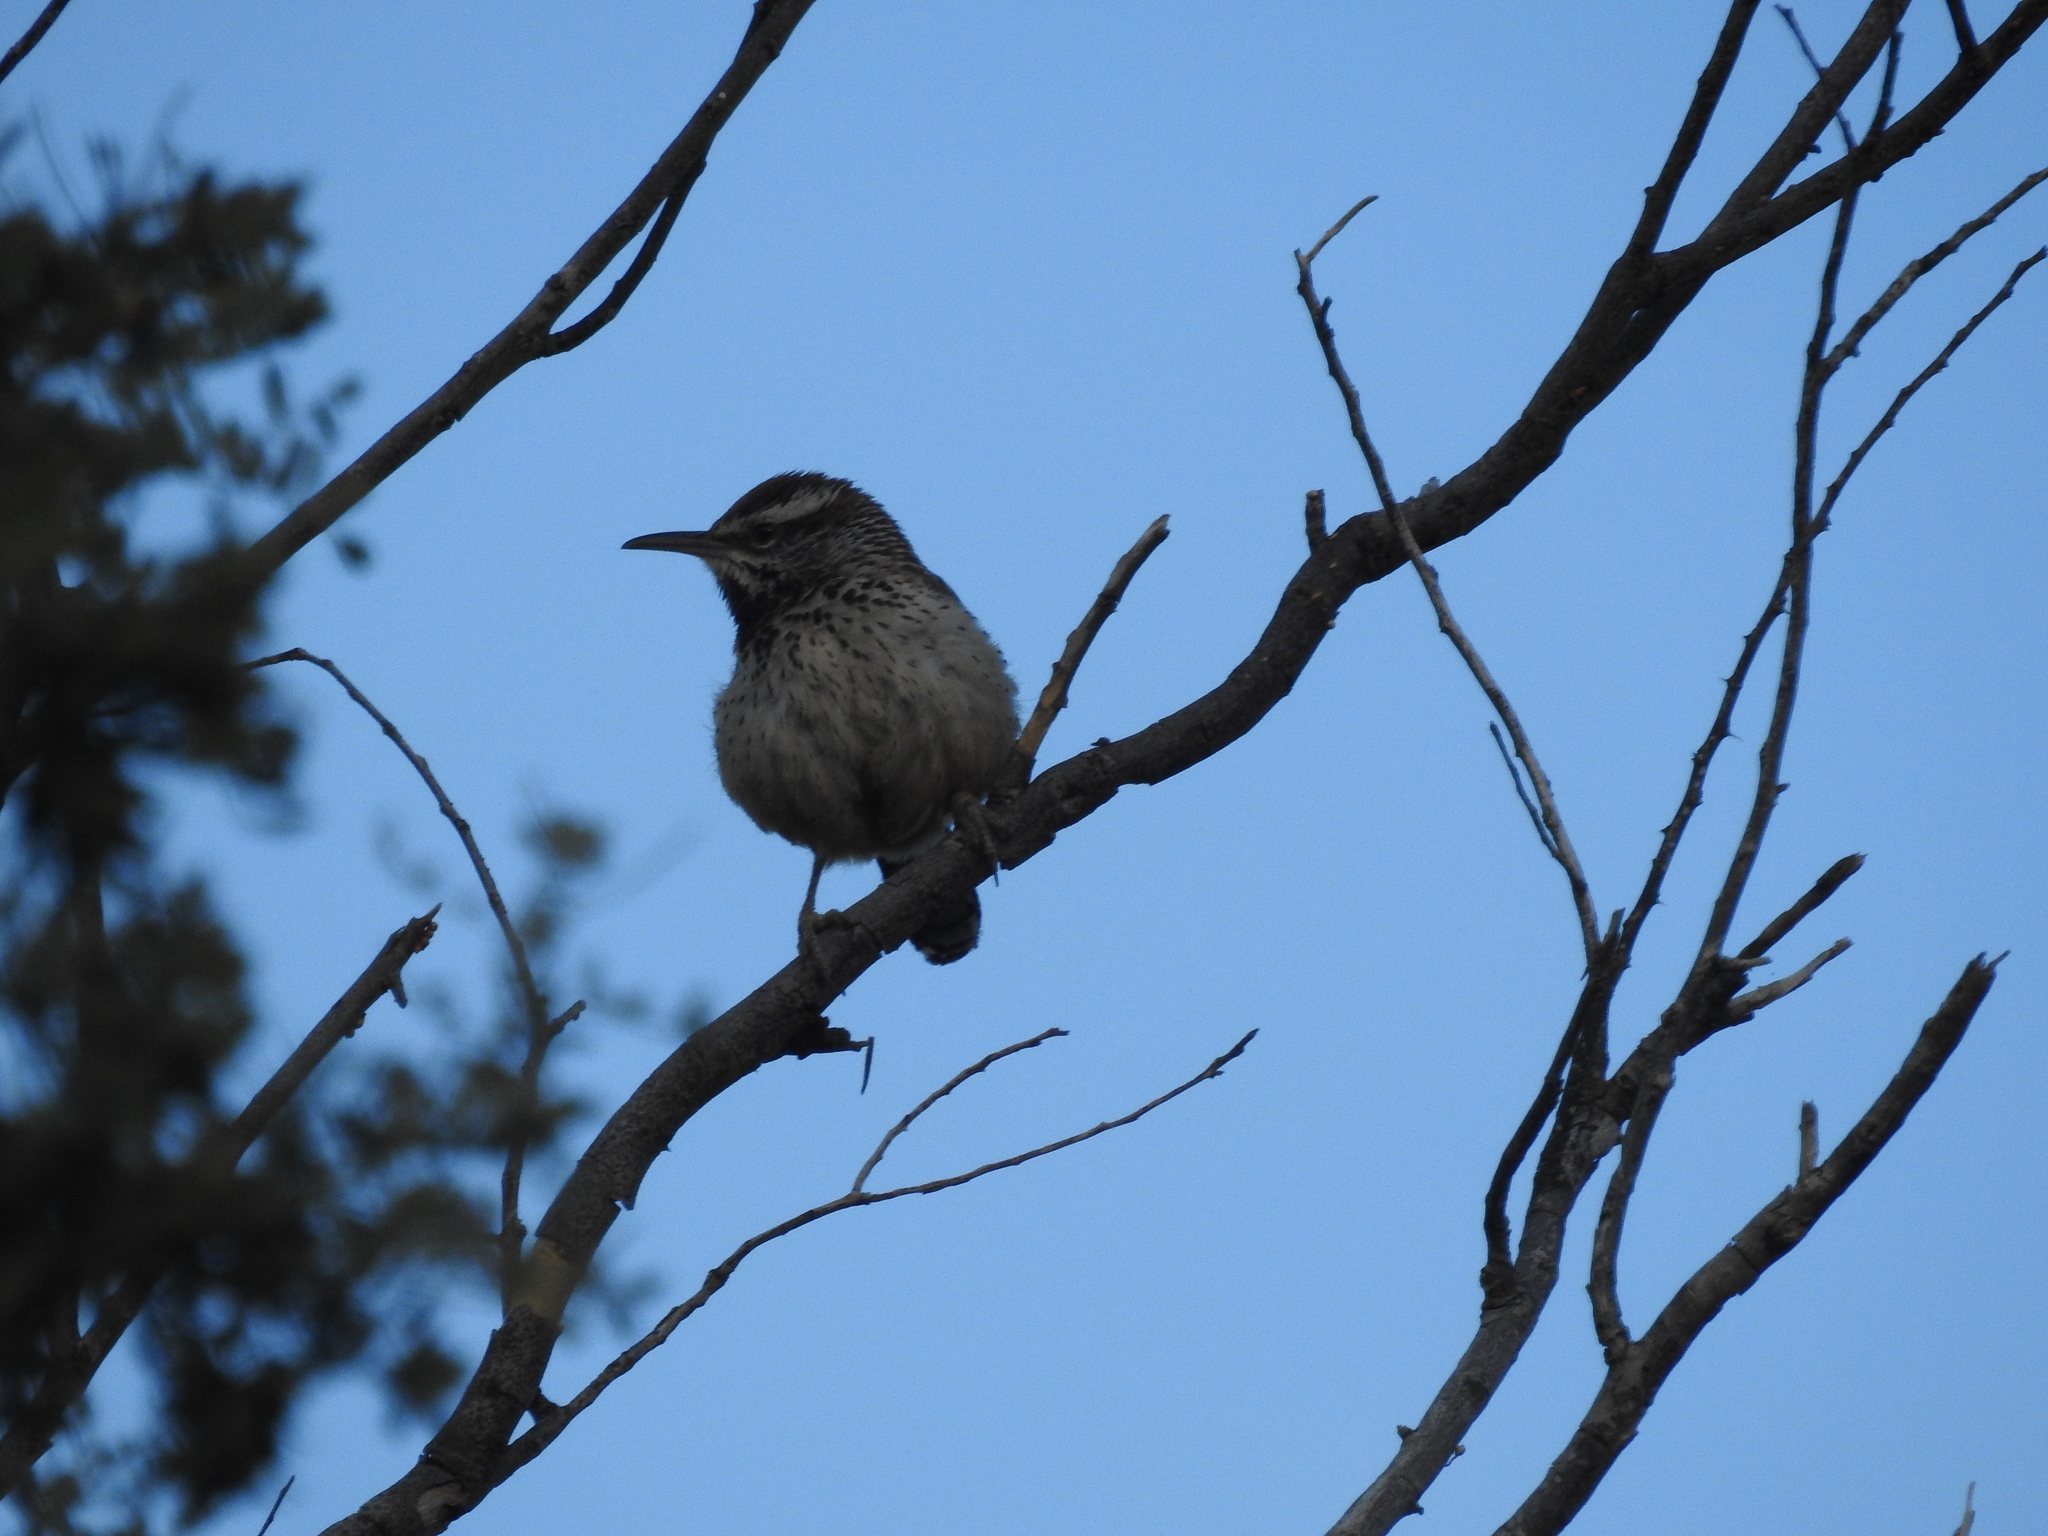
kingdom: Animalia
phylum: Chordata
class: Aves
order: Passeriformes
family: Troglodytidae
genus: Campylorhynchus
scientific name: Campylorhynchus brunneicapillus
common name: Cactus wren
